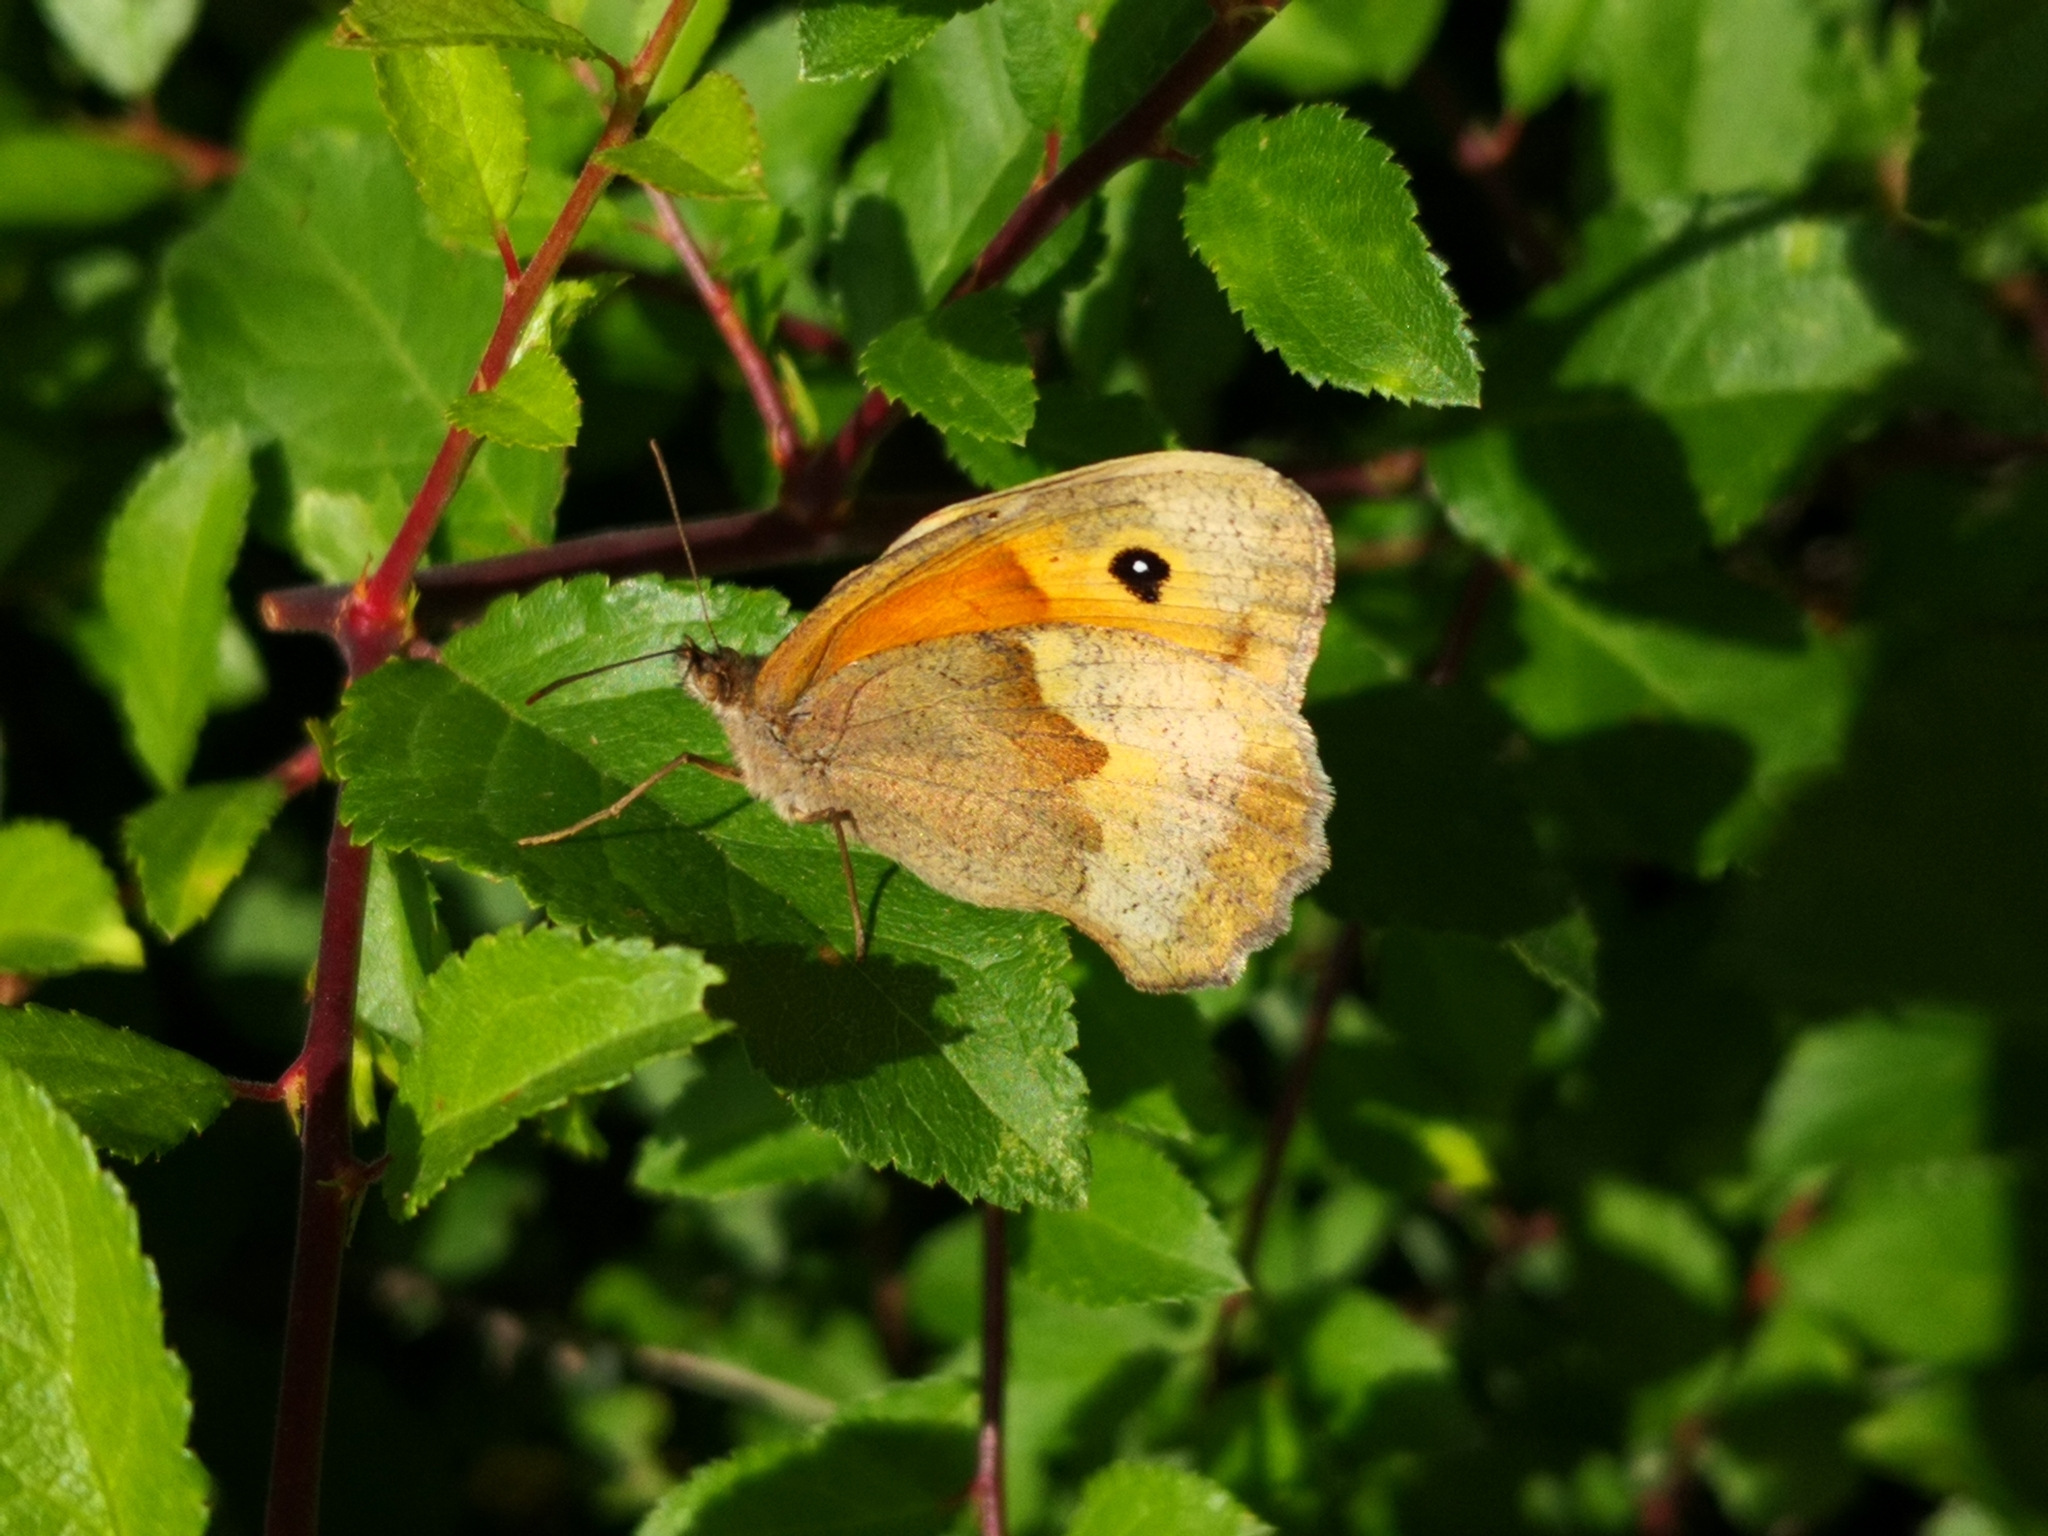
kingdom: Animalia
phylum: Arthropoda
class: Insecta
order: Lepidoptera
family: Nymphalidae
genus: Maniola
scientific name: Maniola jurtina
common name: Meadow brown
